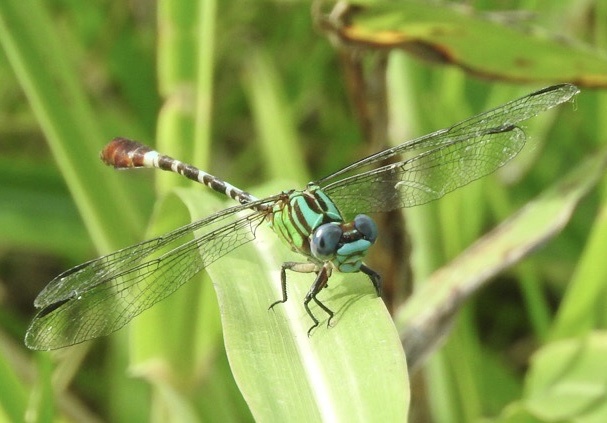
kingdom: Animalia
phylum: Arthropoda
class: Insecta
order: Odonata
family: Gomphidae
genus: Erpetogomphus
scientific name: Erpetogomphus eutainia
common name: Blue-faced ringtail
